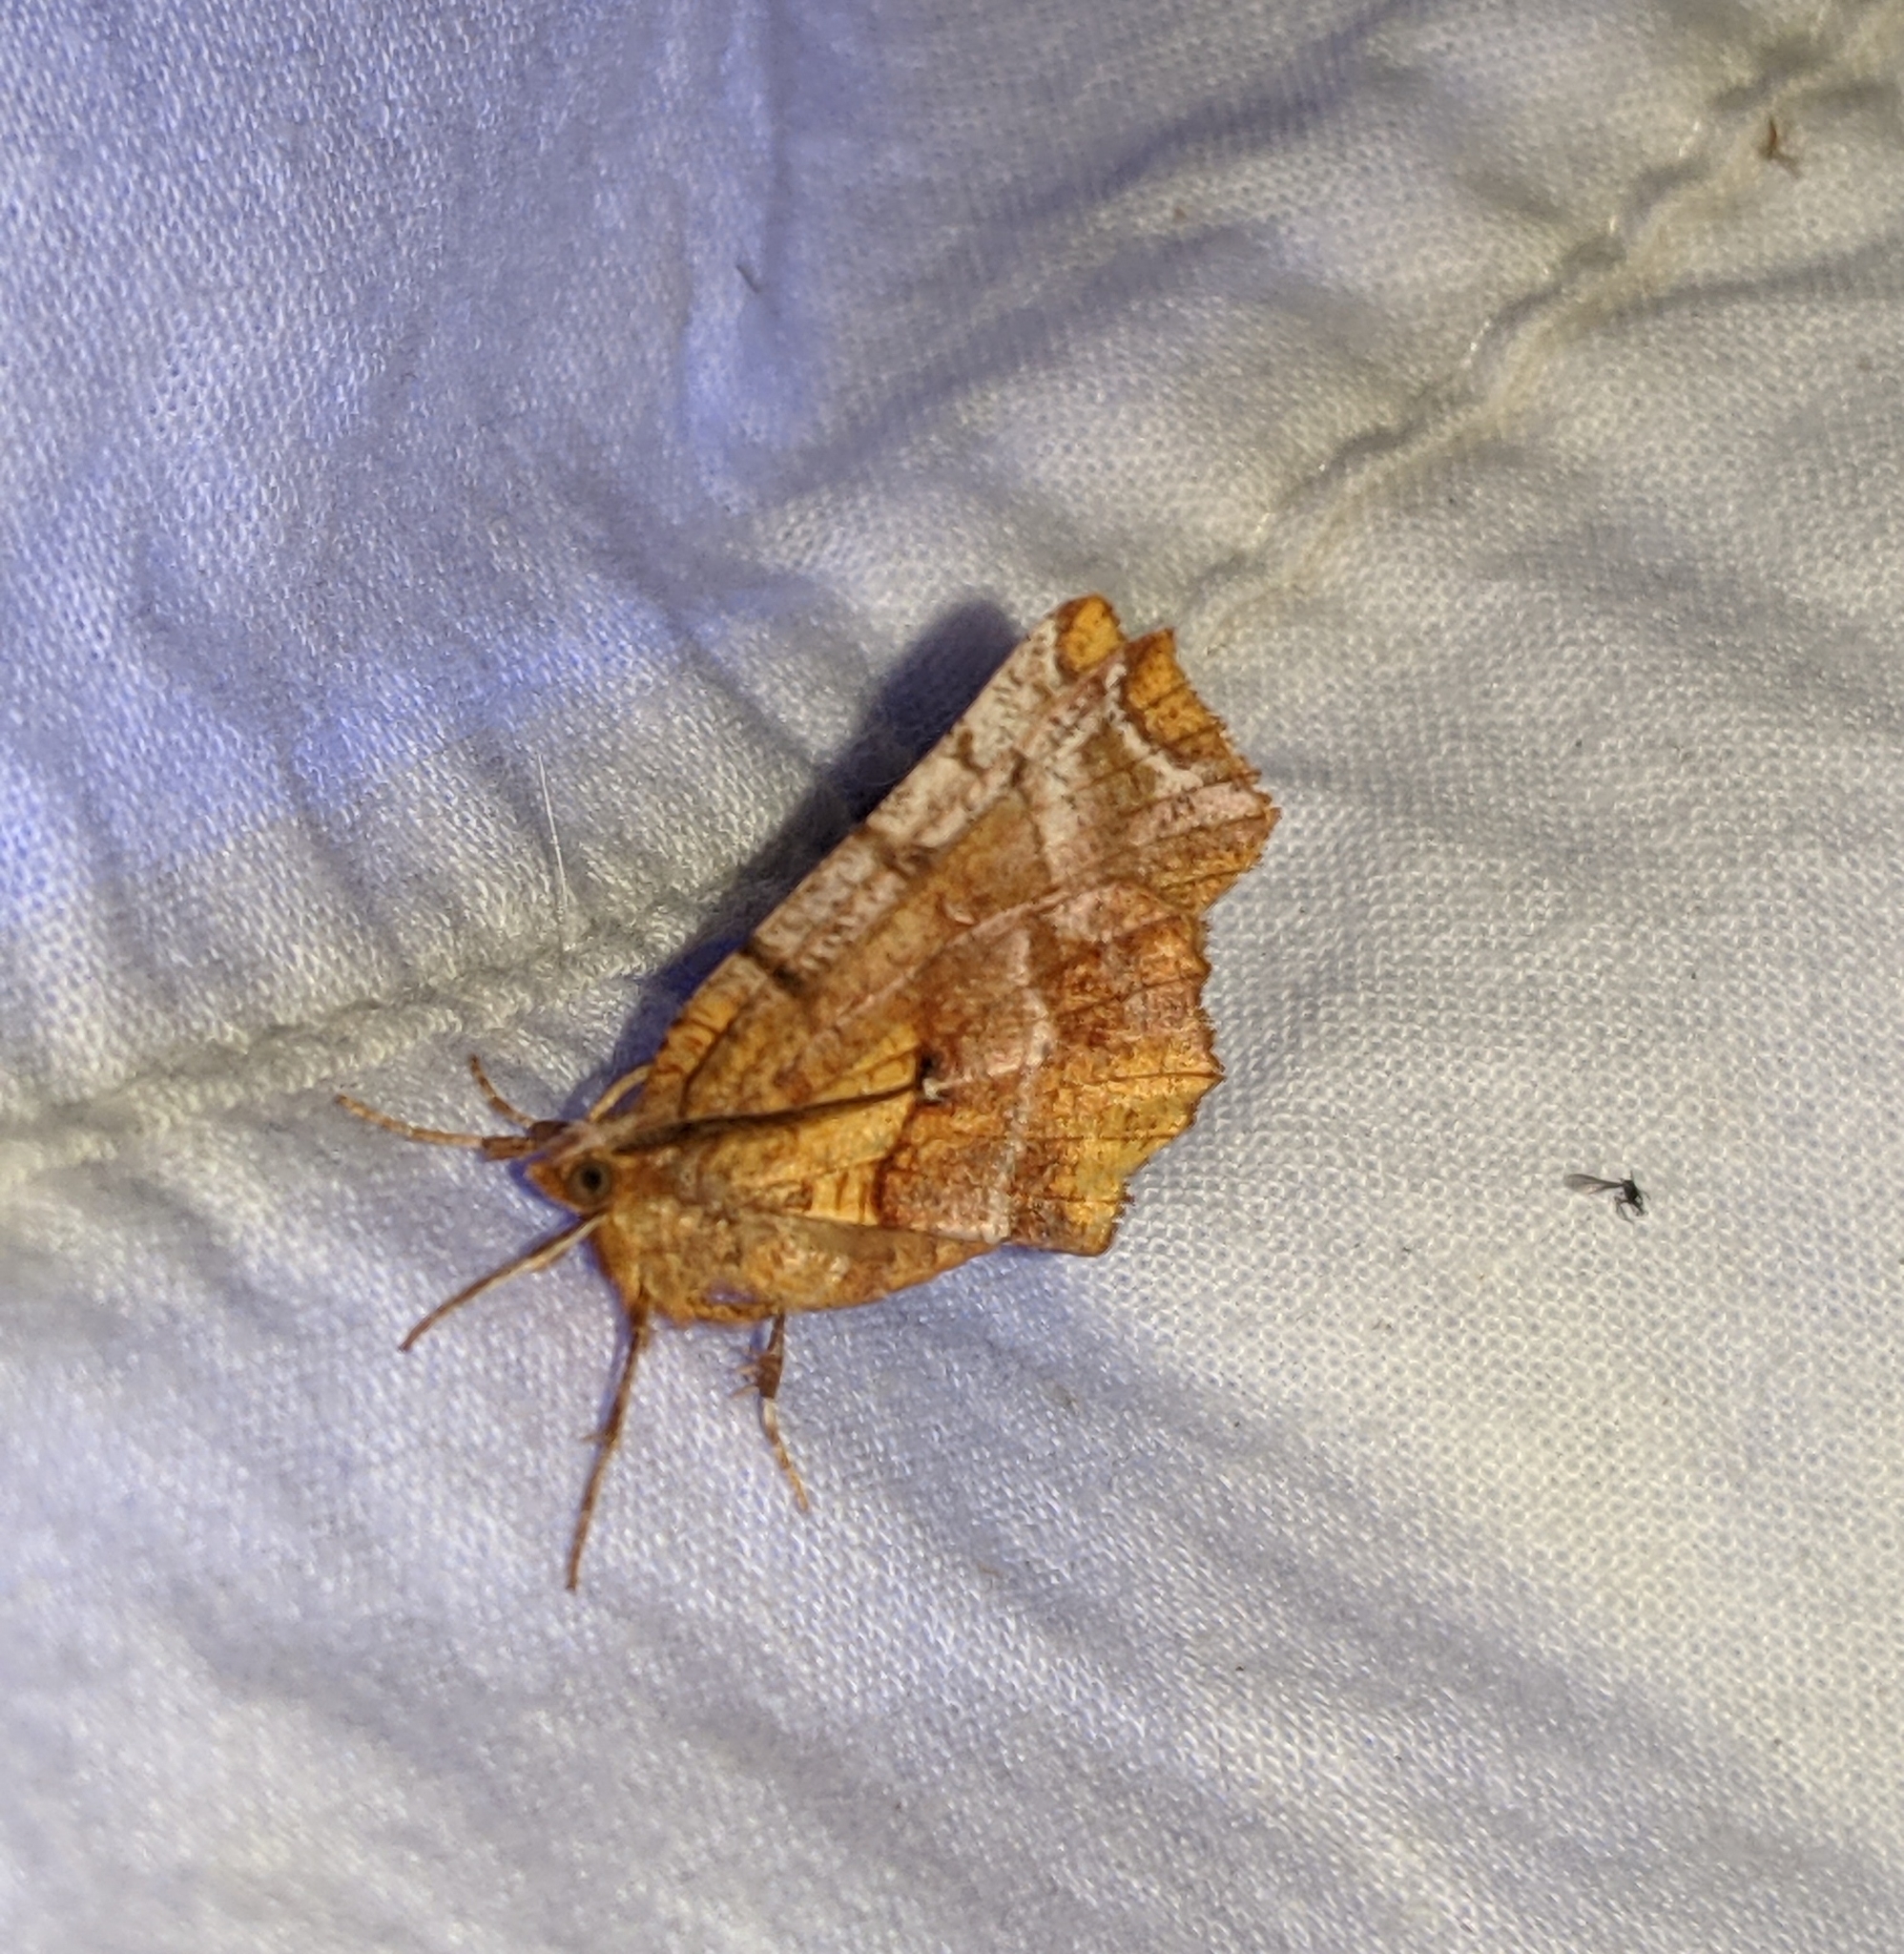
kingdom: Animalia
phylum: Arthropoda
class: Insecta
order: Lepidoptera
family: Geometridae
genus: Selenia
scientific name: Selenia alciphearia
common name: Brown-tipped thorn
